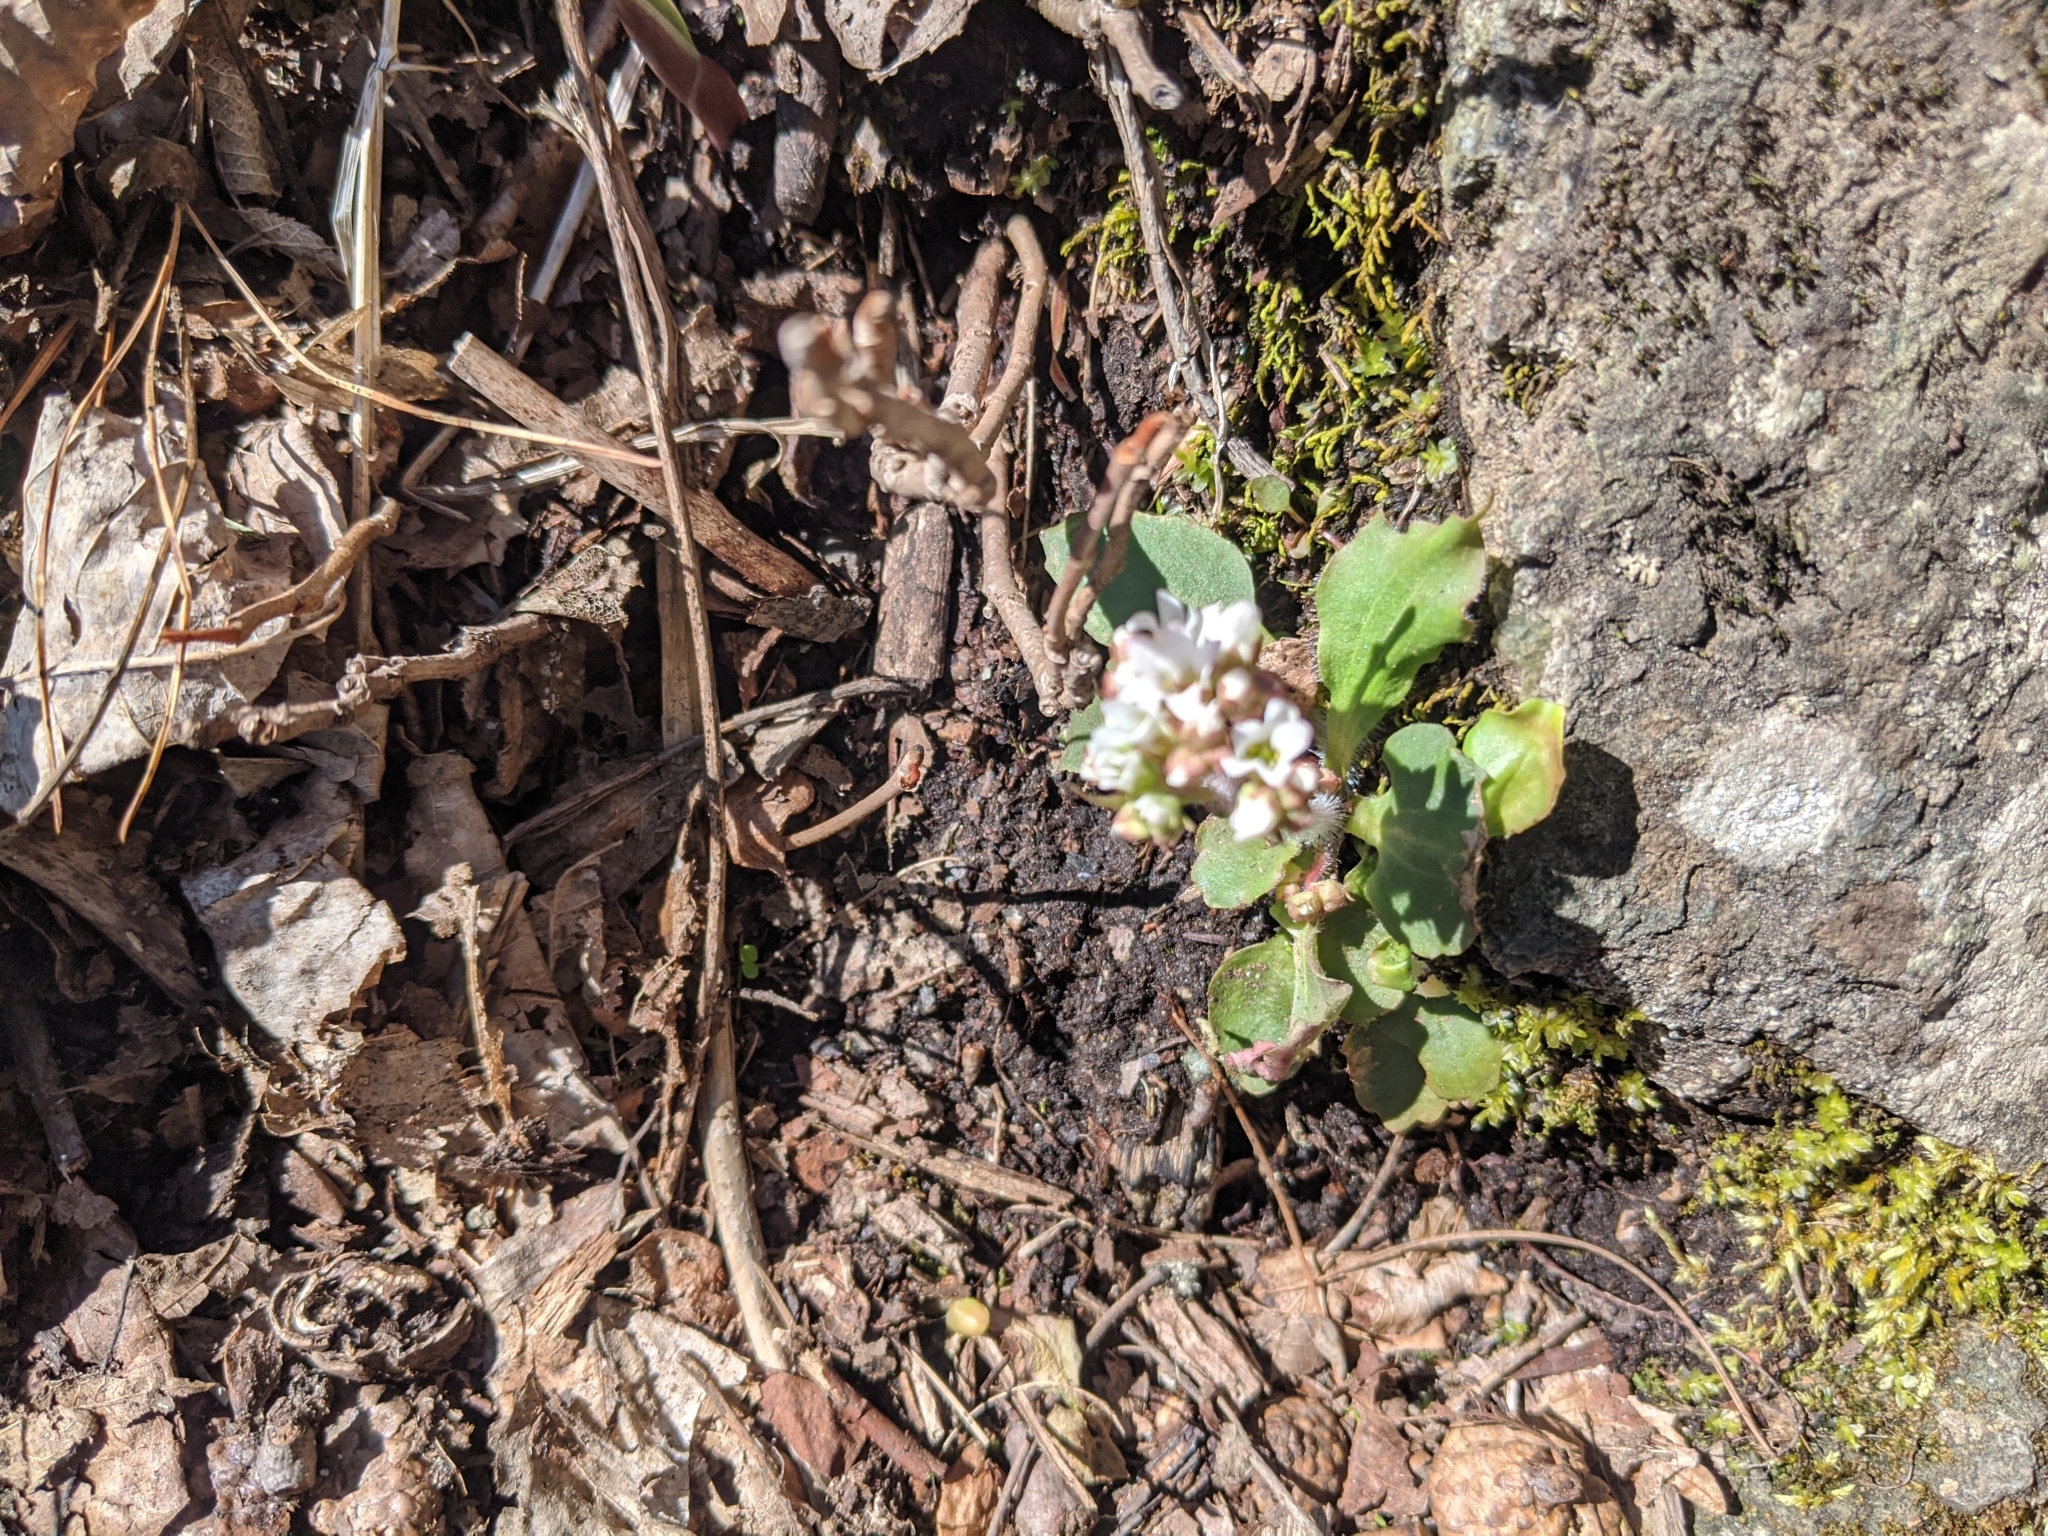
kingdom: Plantae
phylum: Tracheophyta
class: Magnoliopsida
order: Saxifragales
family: Saxifragaceae
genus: Micranthes
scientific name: Micranthes virginiensis
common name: Early saxifrage
